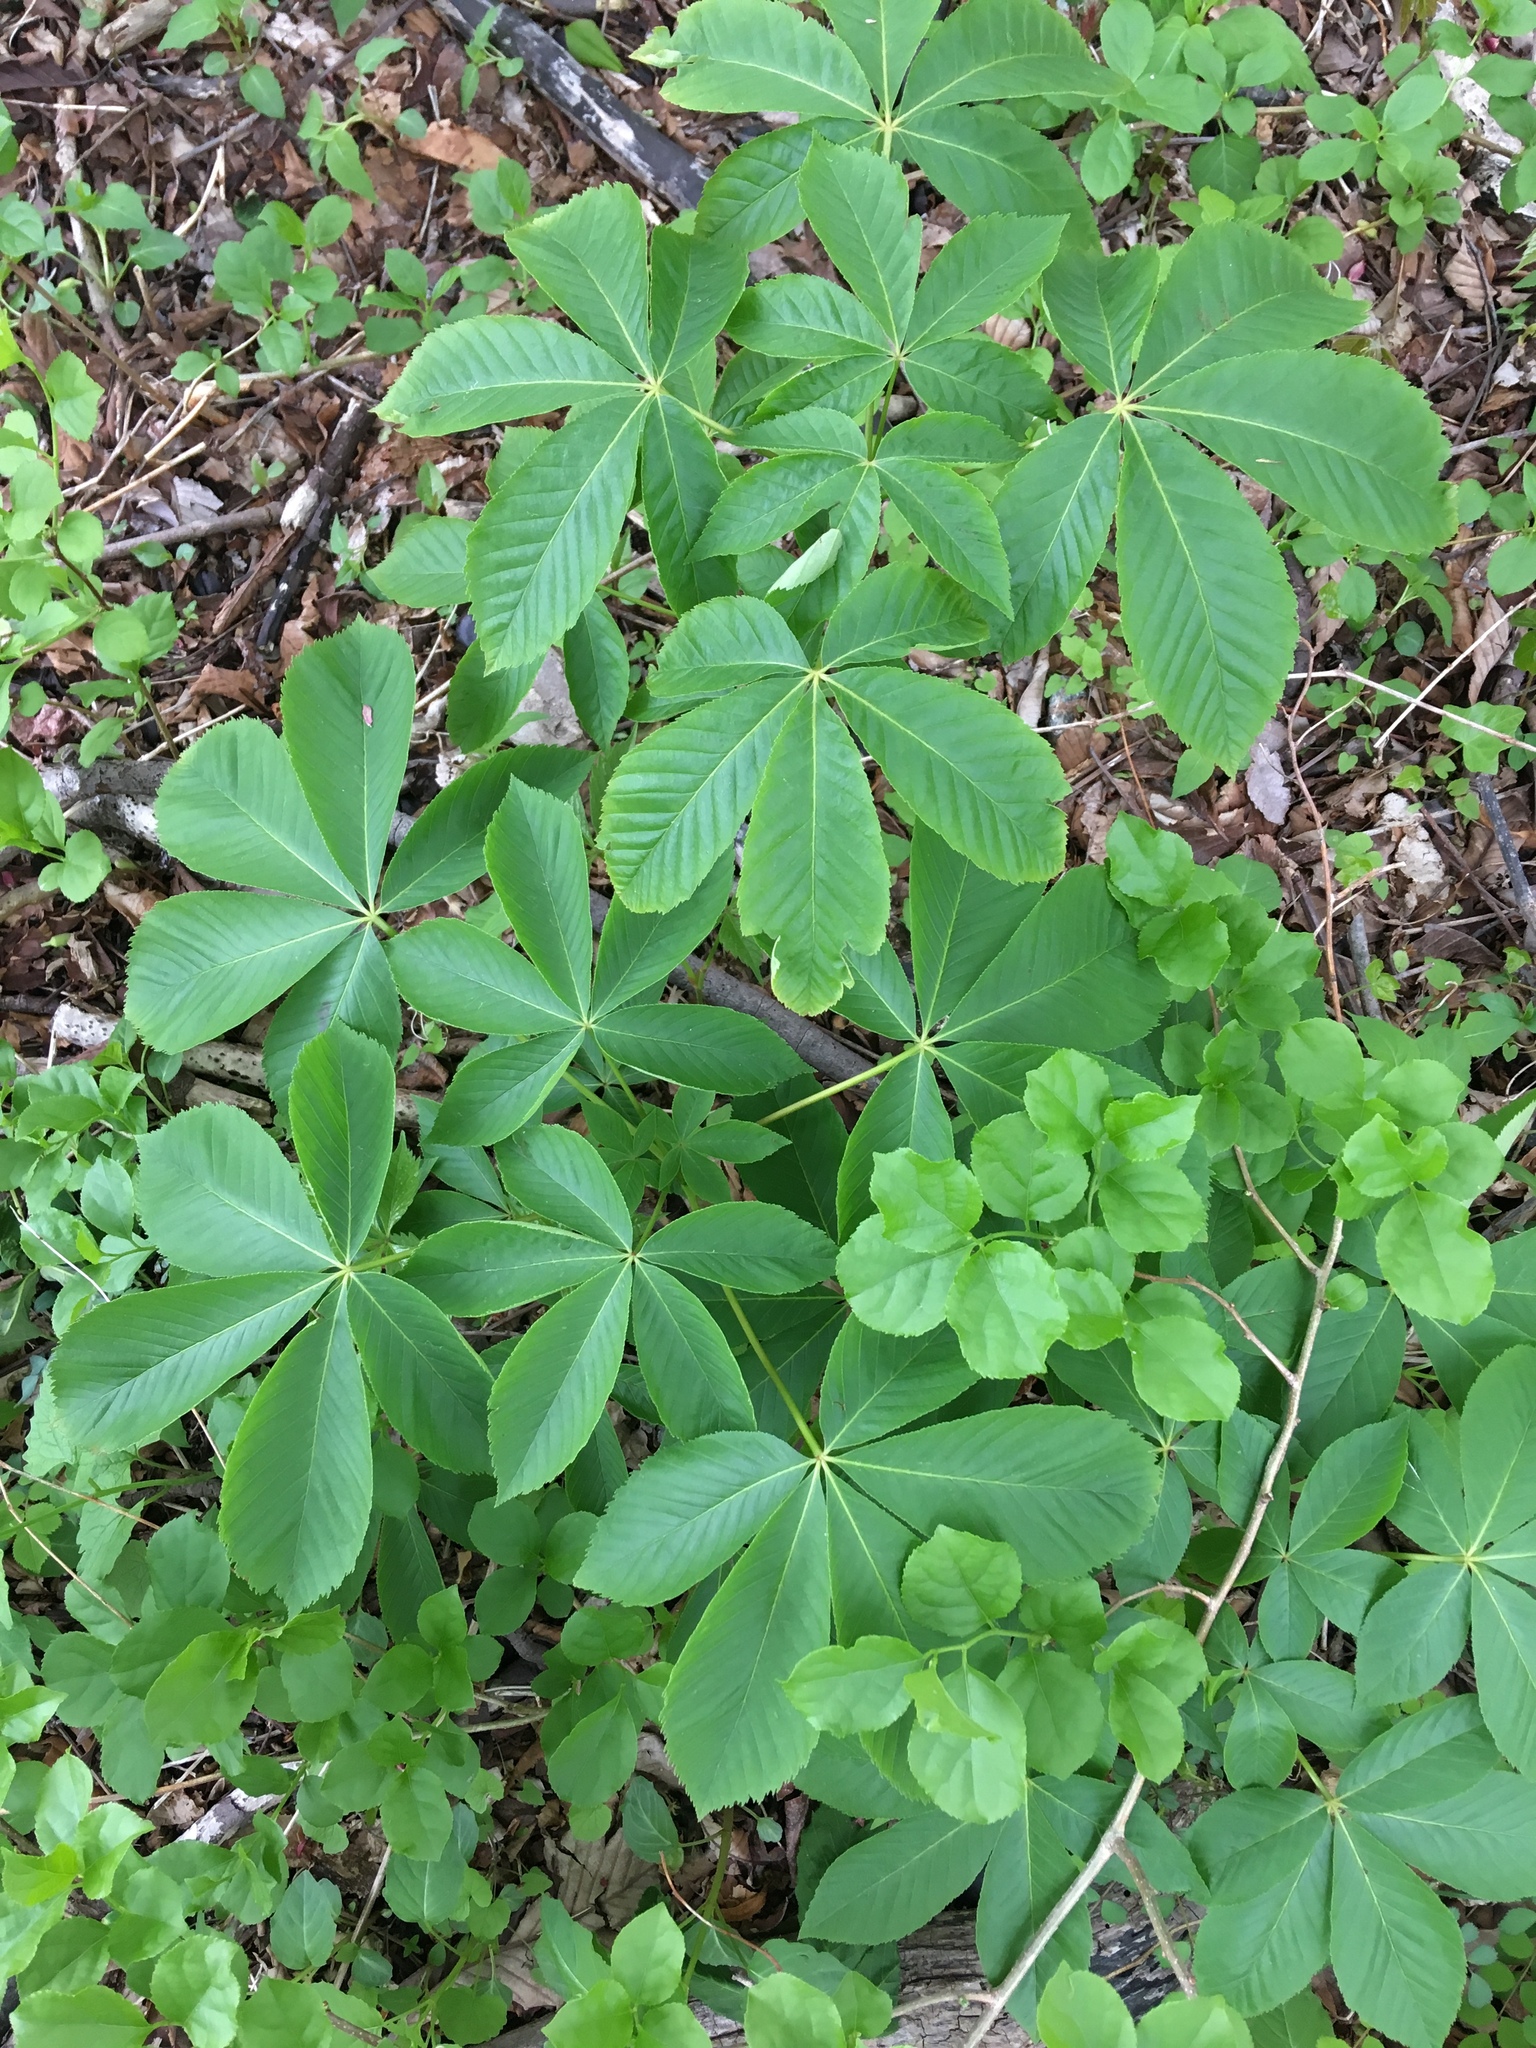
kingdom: Plantae
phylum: Tracheophyta
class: Magnoliopsida
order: Sapindales
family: Sapindaceae
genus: Aesculus
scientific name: Aesculus glabra
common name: Ohio buckeye
